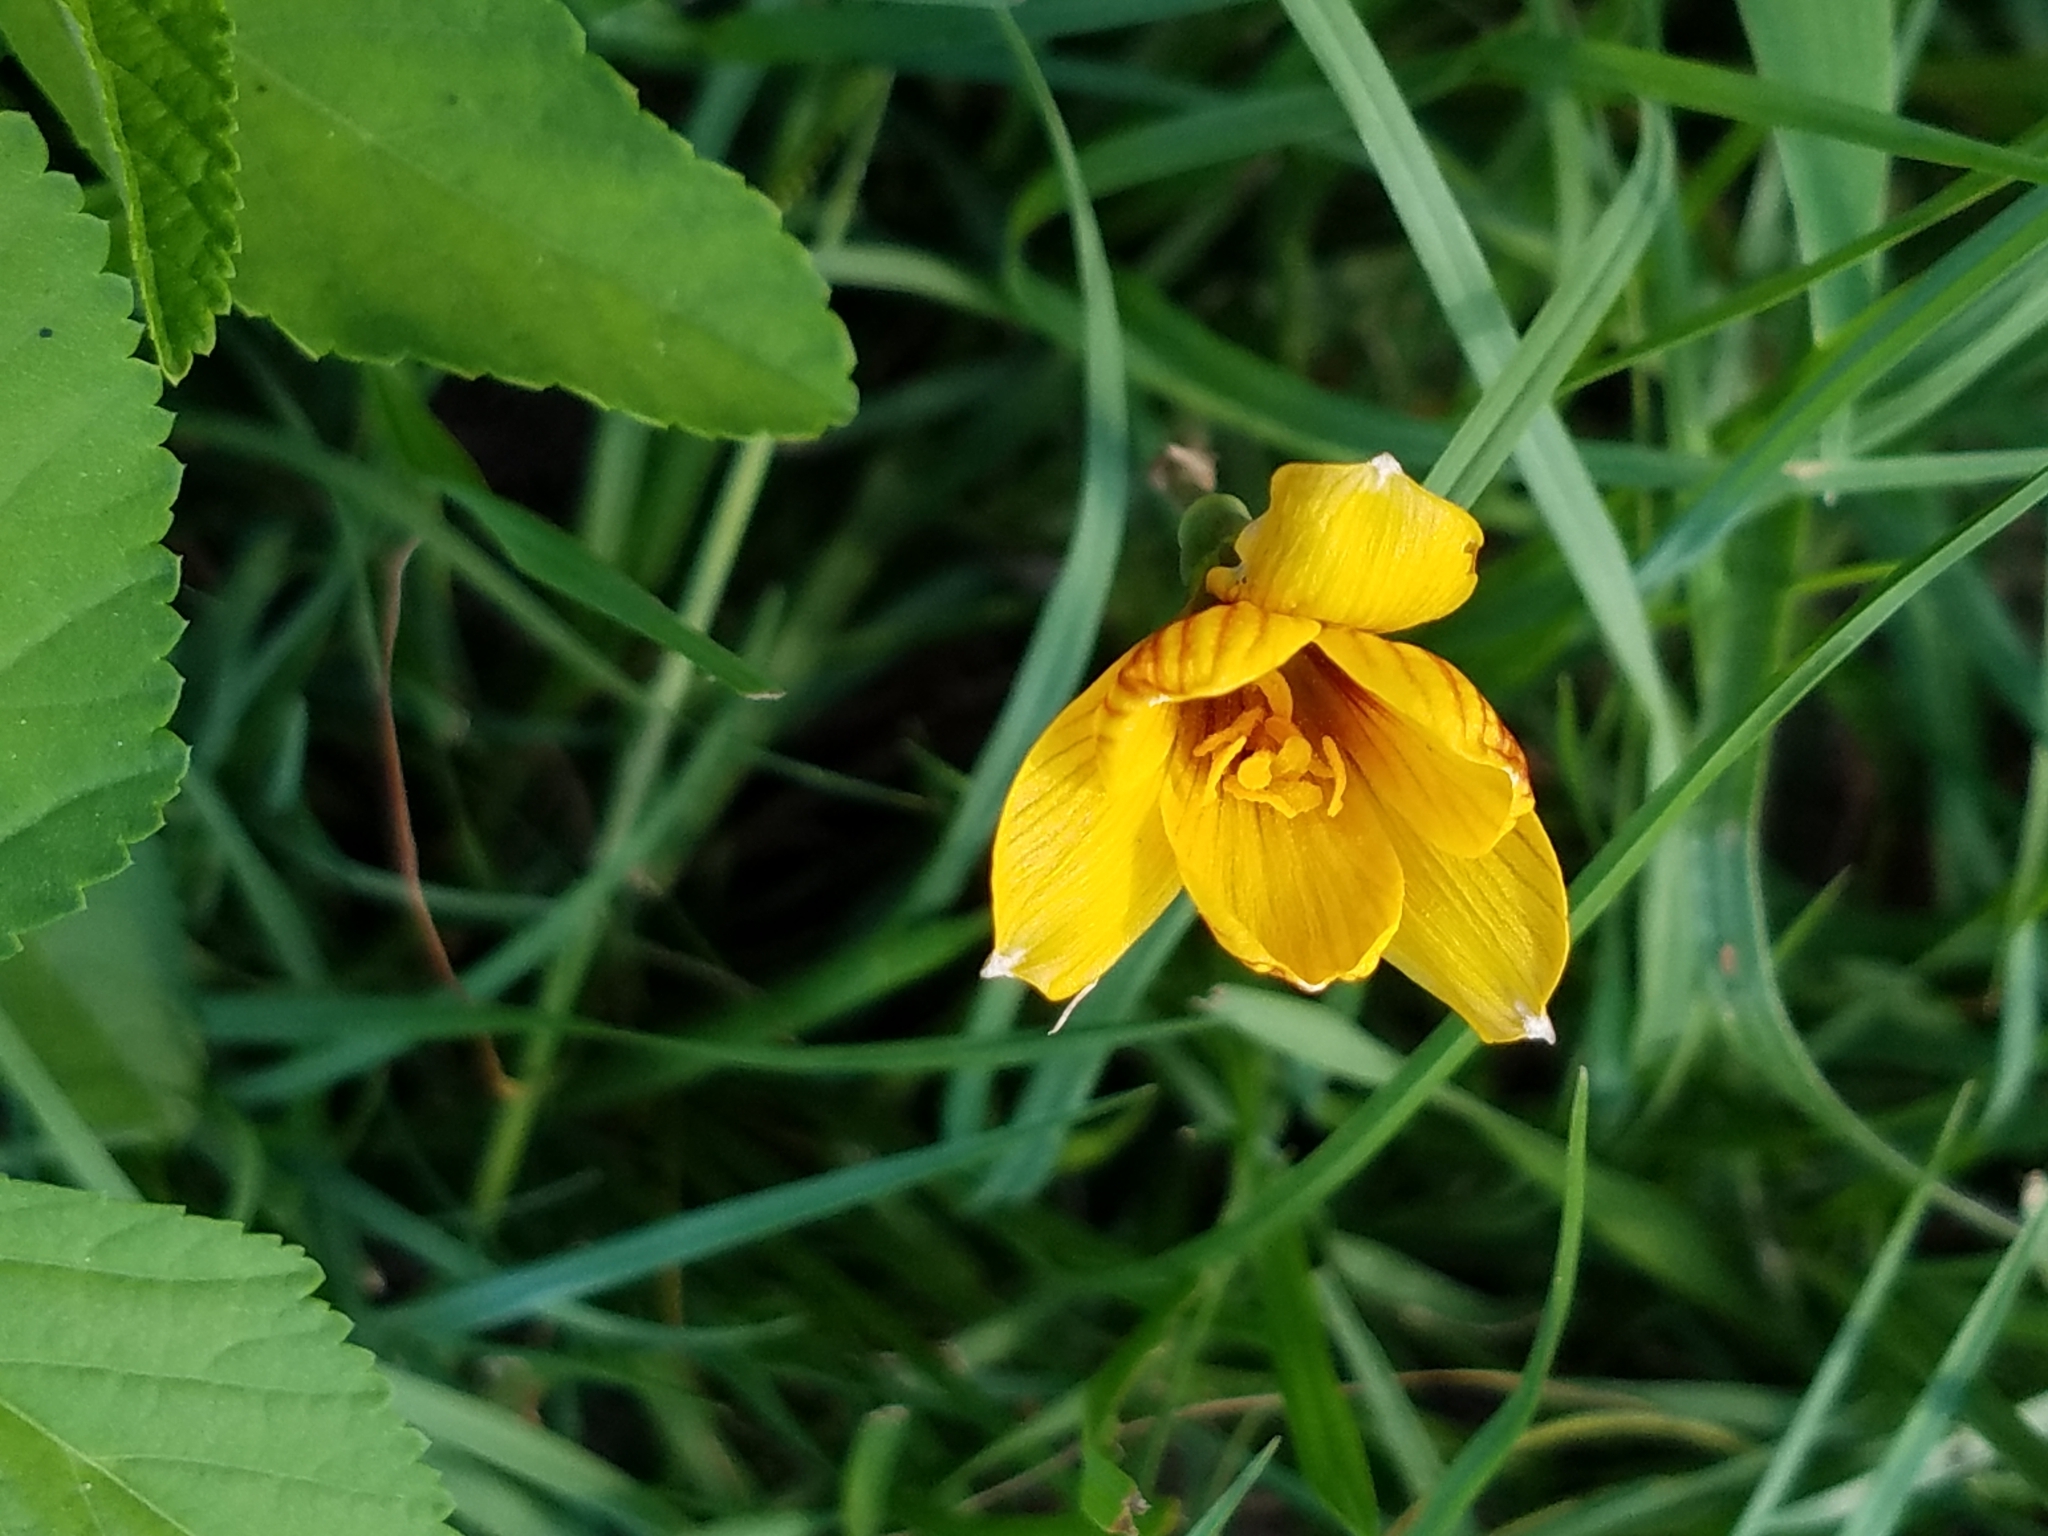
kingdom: Plantae
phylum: Tracheophyta
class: Liliopsida
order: Asparagales
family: Amaryllidaceae
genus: Zephyranthes
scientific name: Zephyranthes tubispatha
